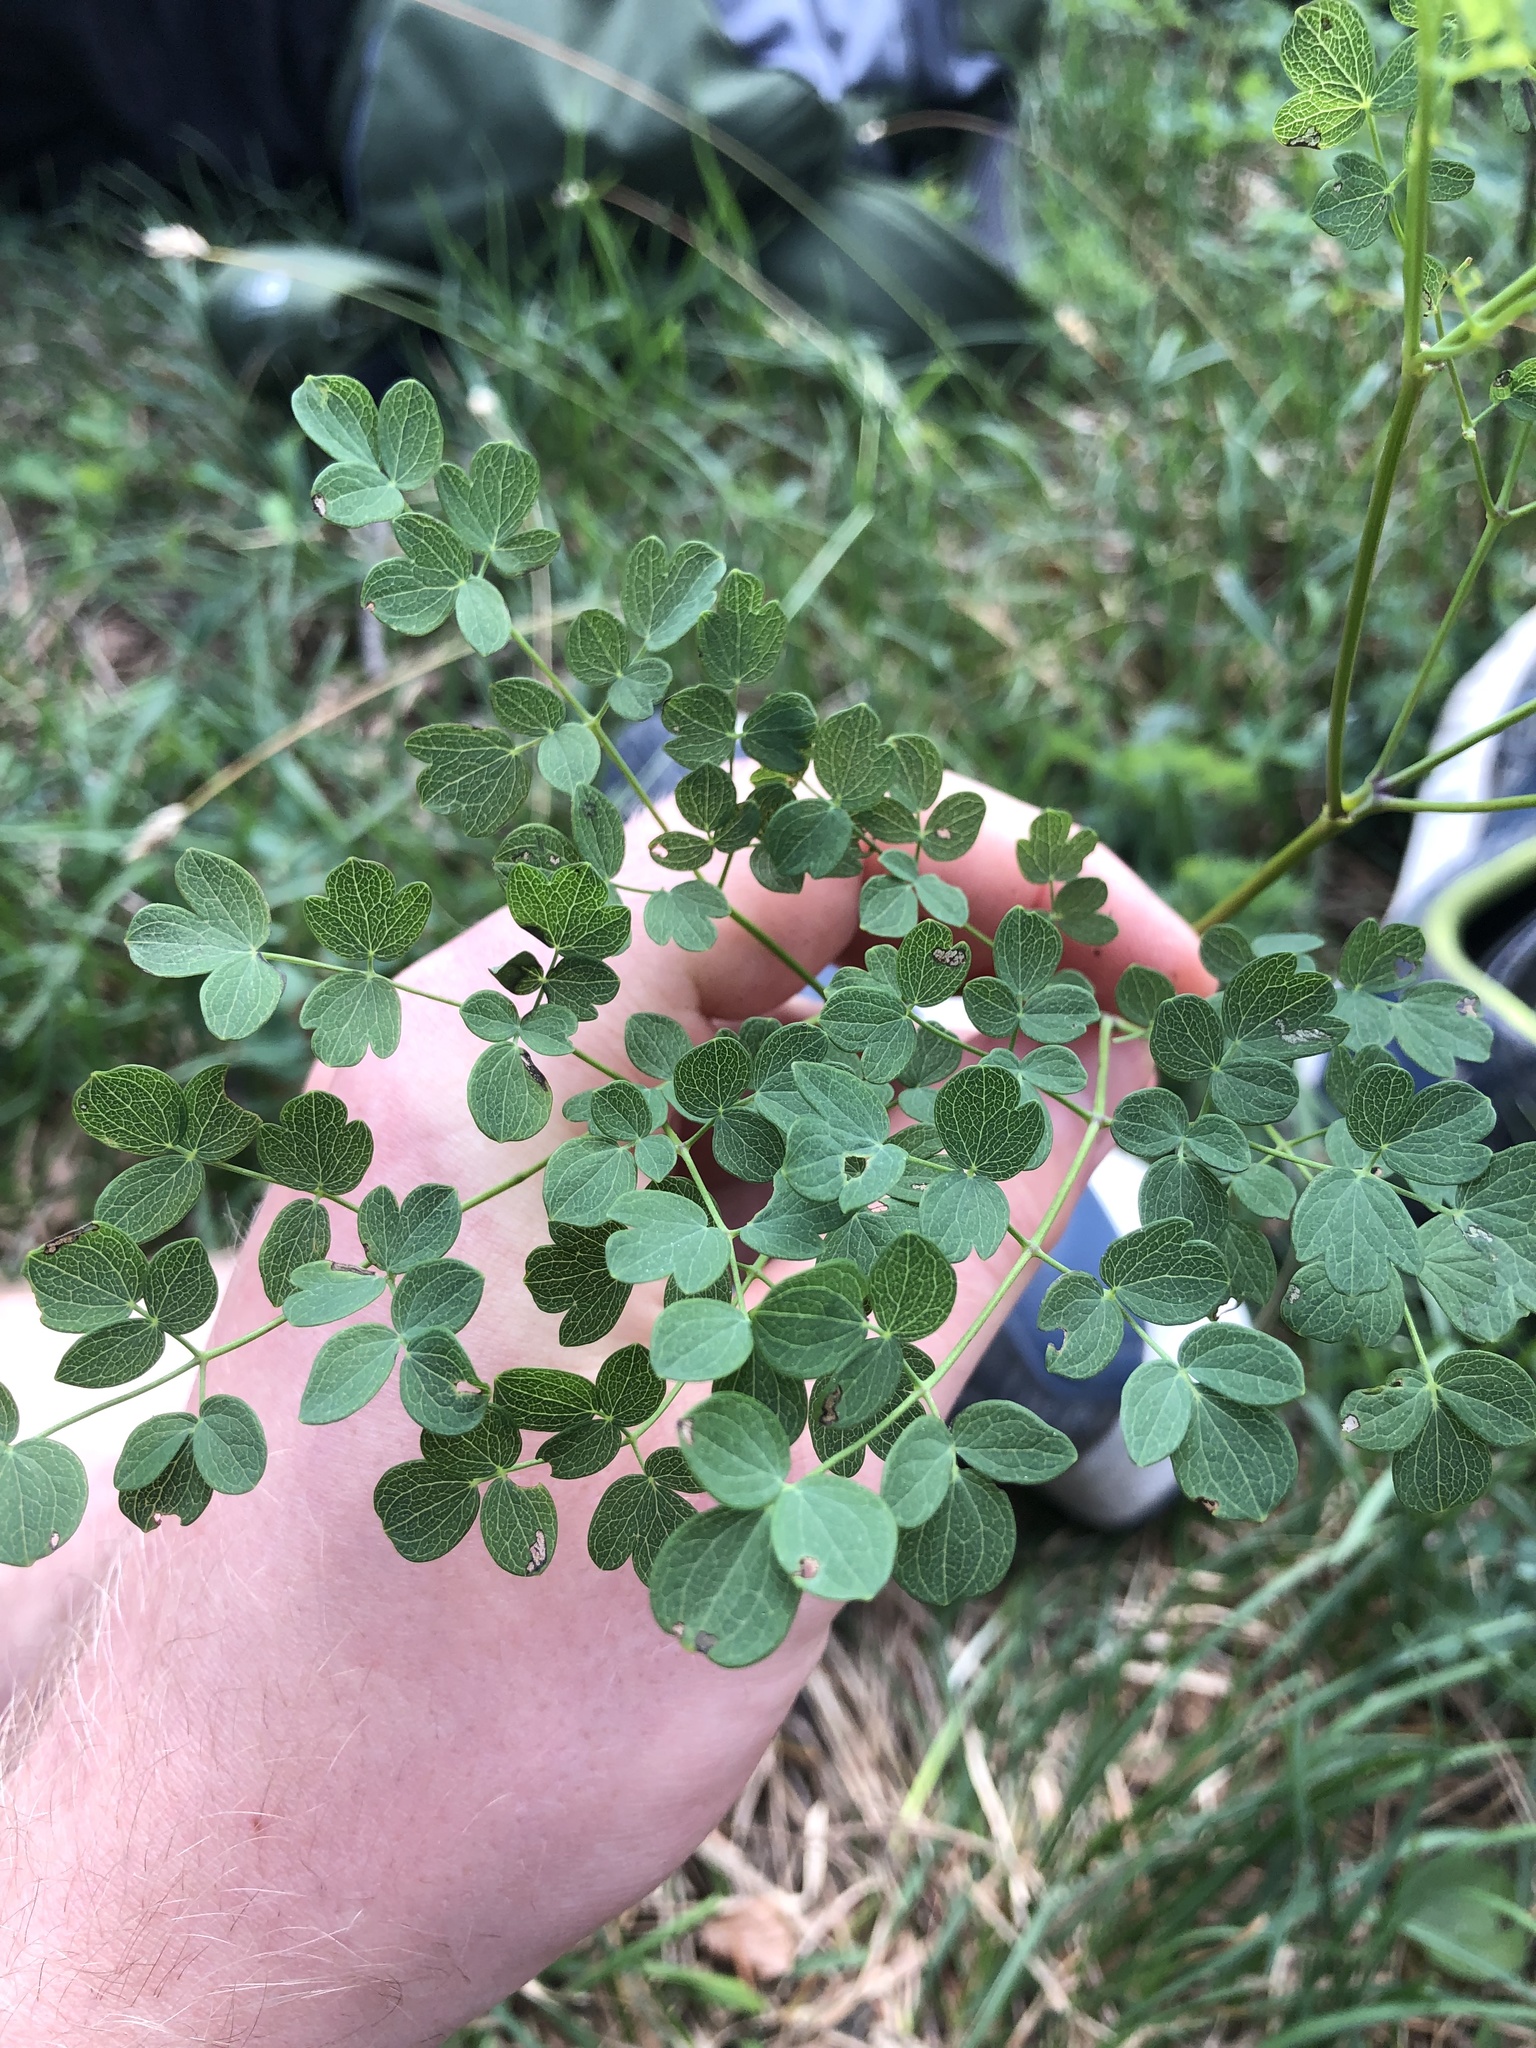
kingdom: Plantae
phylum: Tracheophyta
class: Magnoliopsida
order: Ranunculales
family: Ranunculaceae
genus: Thalictrum
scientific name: Thalictrum minus
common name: Lesser meadow-rue
